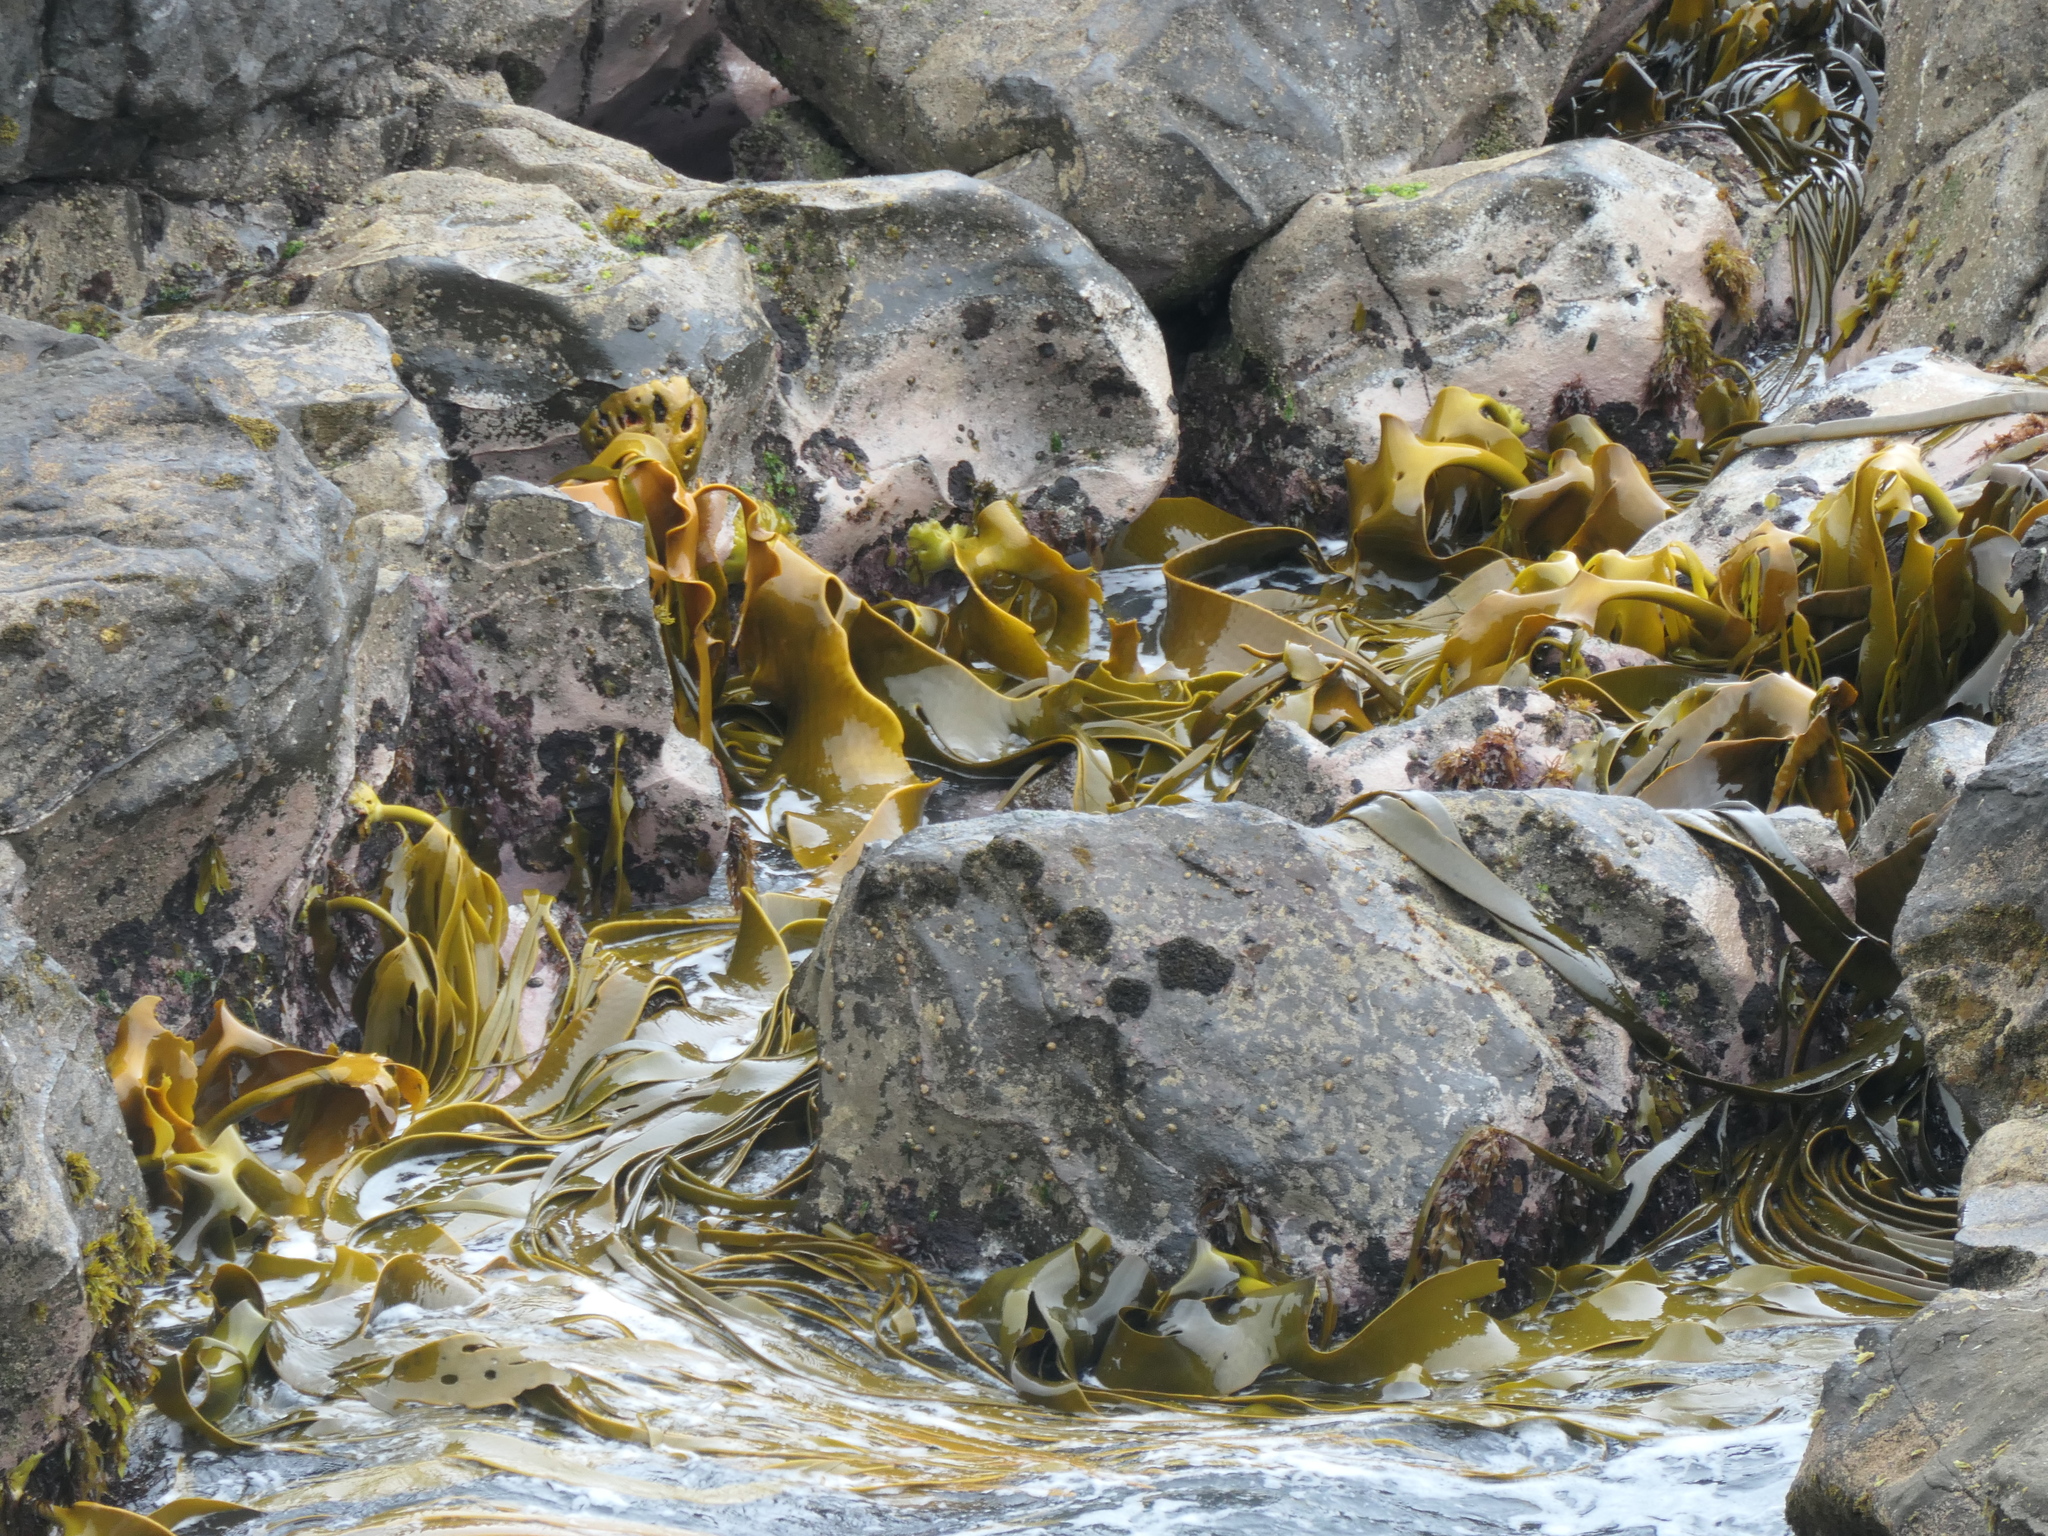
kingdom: Chromista
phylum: Ochrophyta
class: Phaeophyceae
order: Fucales
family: Durvillaeaceae
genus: Durvillaea
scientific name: Durvillaea poha
